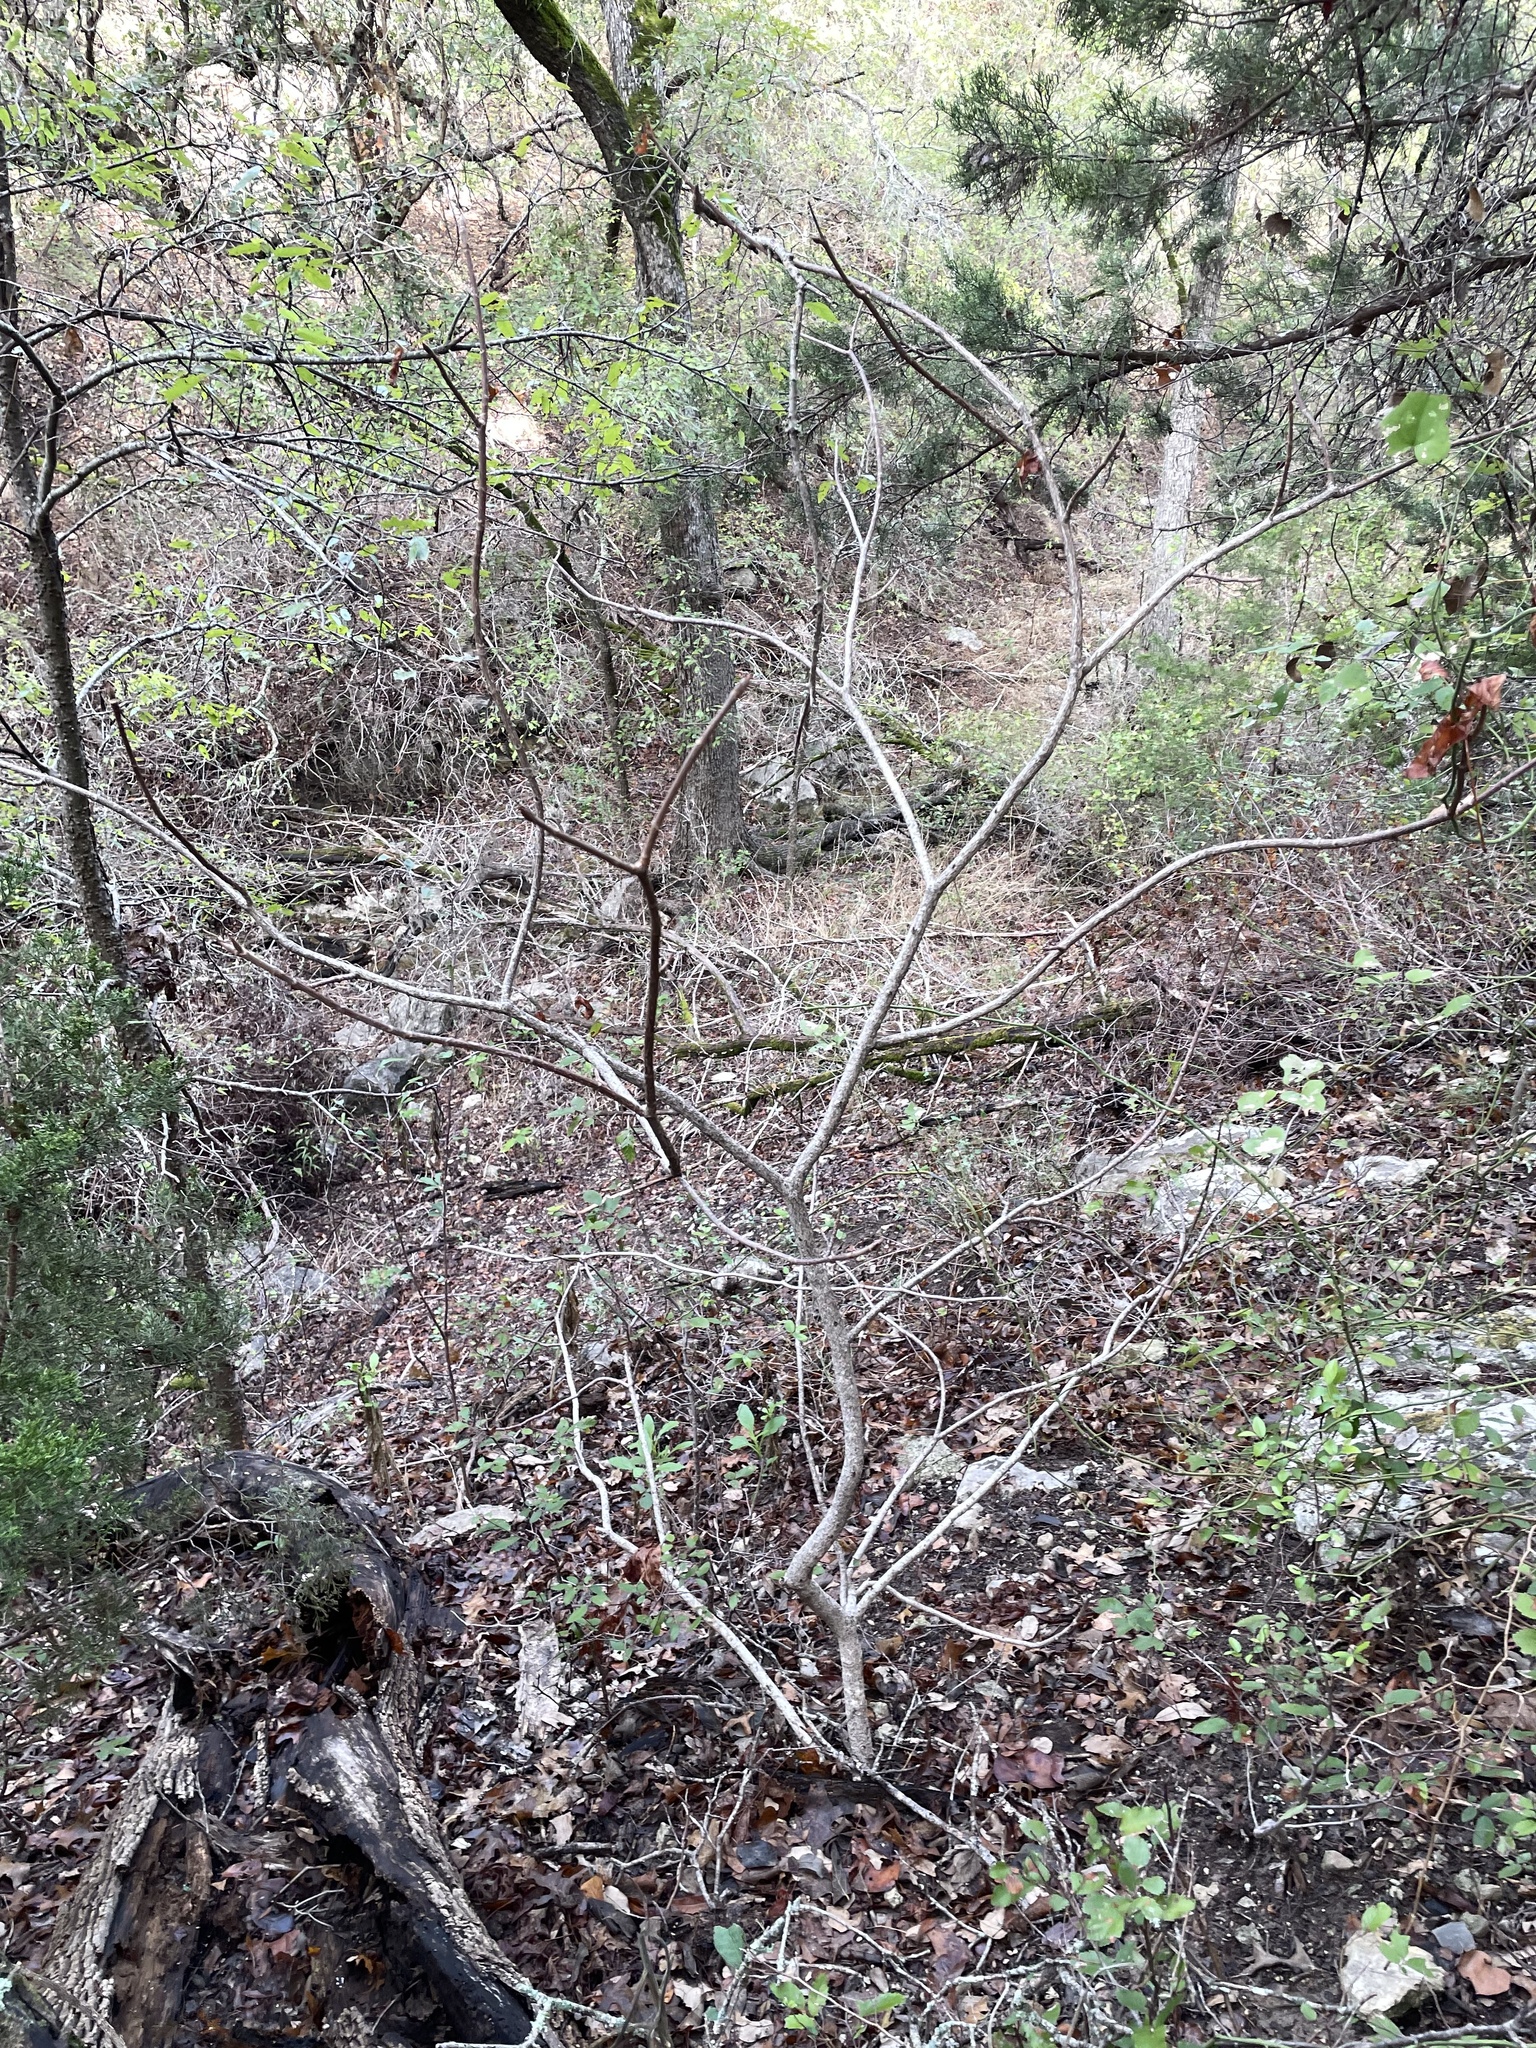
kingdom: Plantae
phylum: Tracheophyta
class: Magnoliopsida
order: Sapindales
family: Sapindaceae
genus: Aesculus
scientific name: Aesculus glabra
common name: Ohio buckeye
